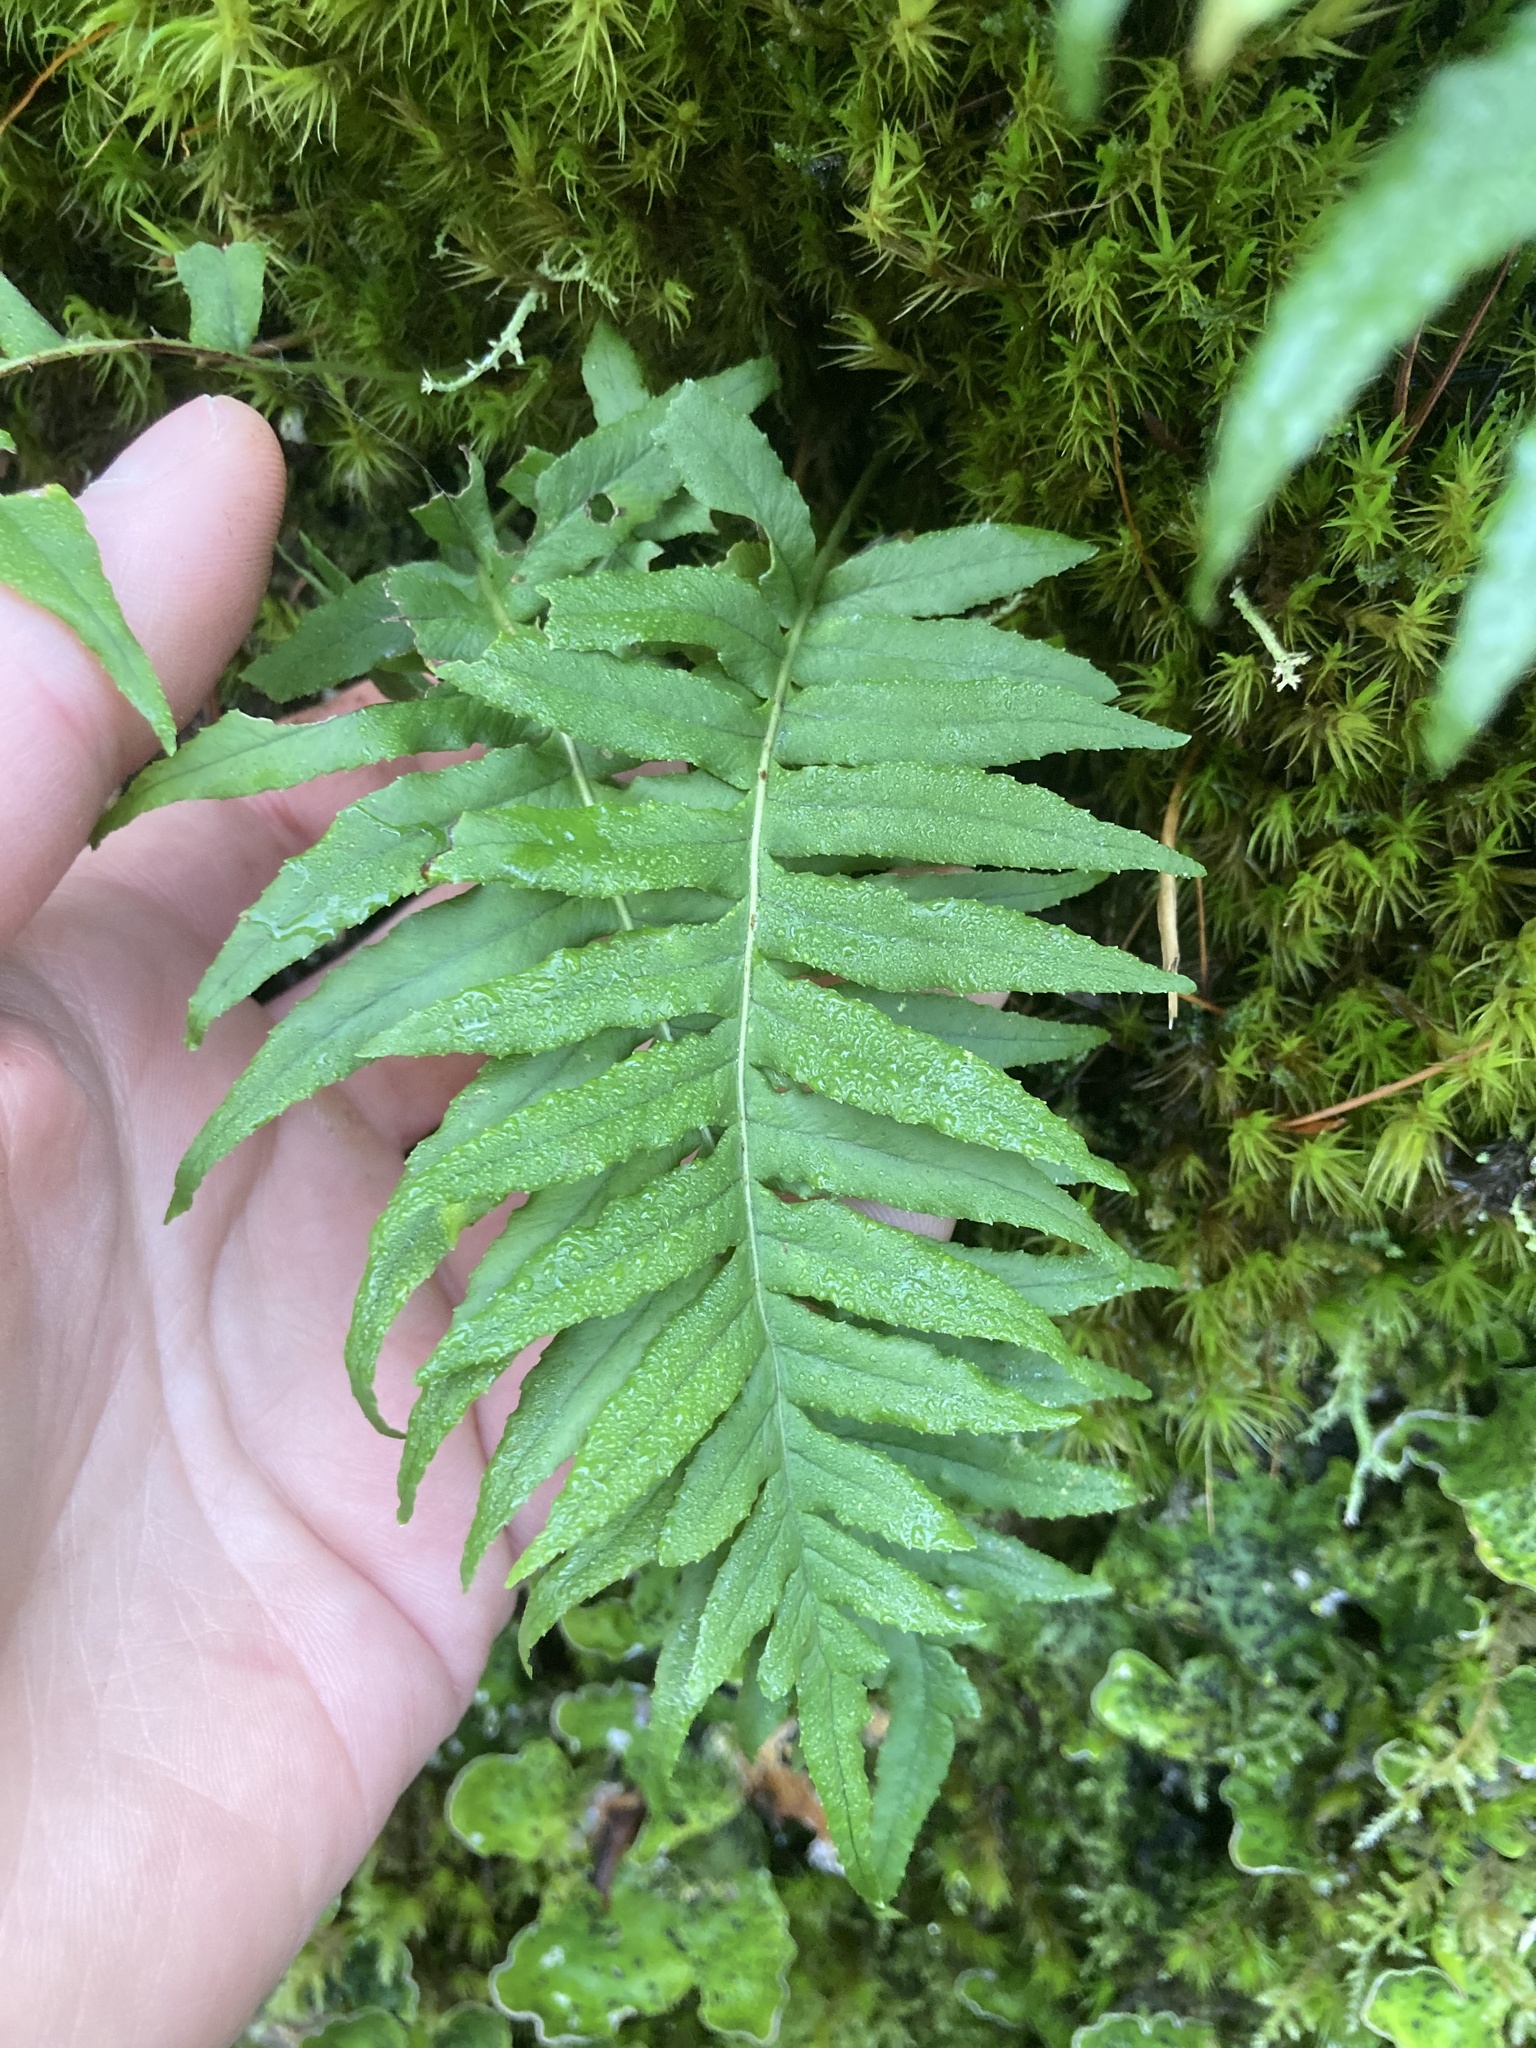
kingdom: Plantae
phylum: Tracheophyta
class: Polypodiopsida
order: Polypodiales
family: Polypodiaceae
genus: Polypodium
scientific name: Polypodium glycyrrhiza
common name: Licorice fern
